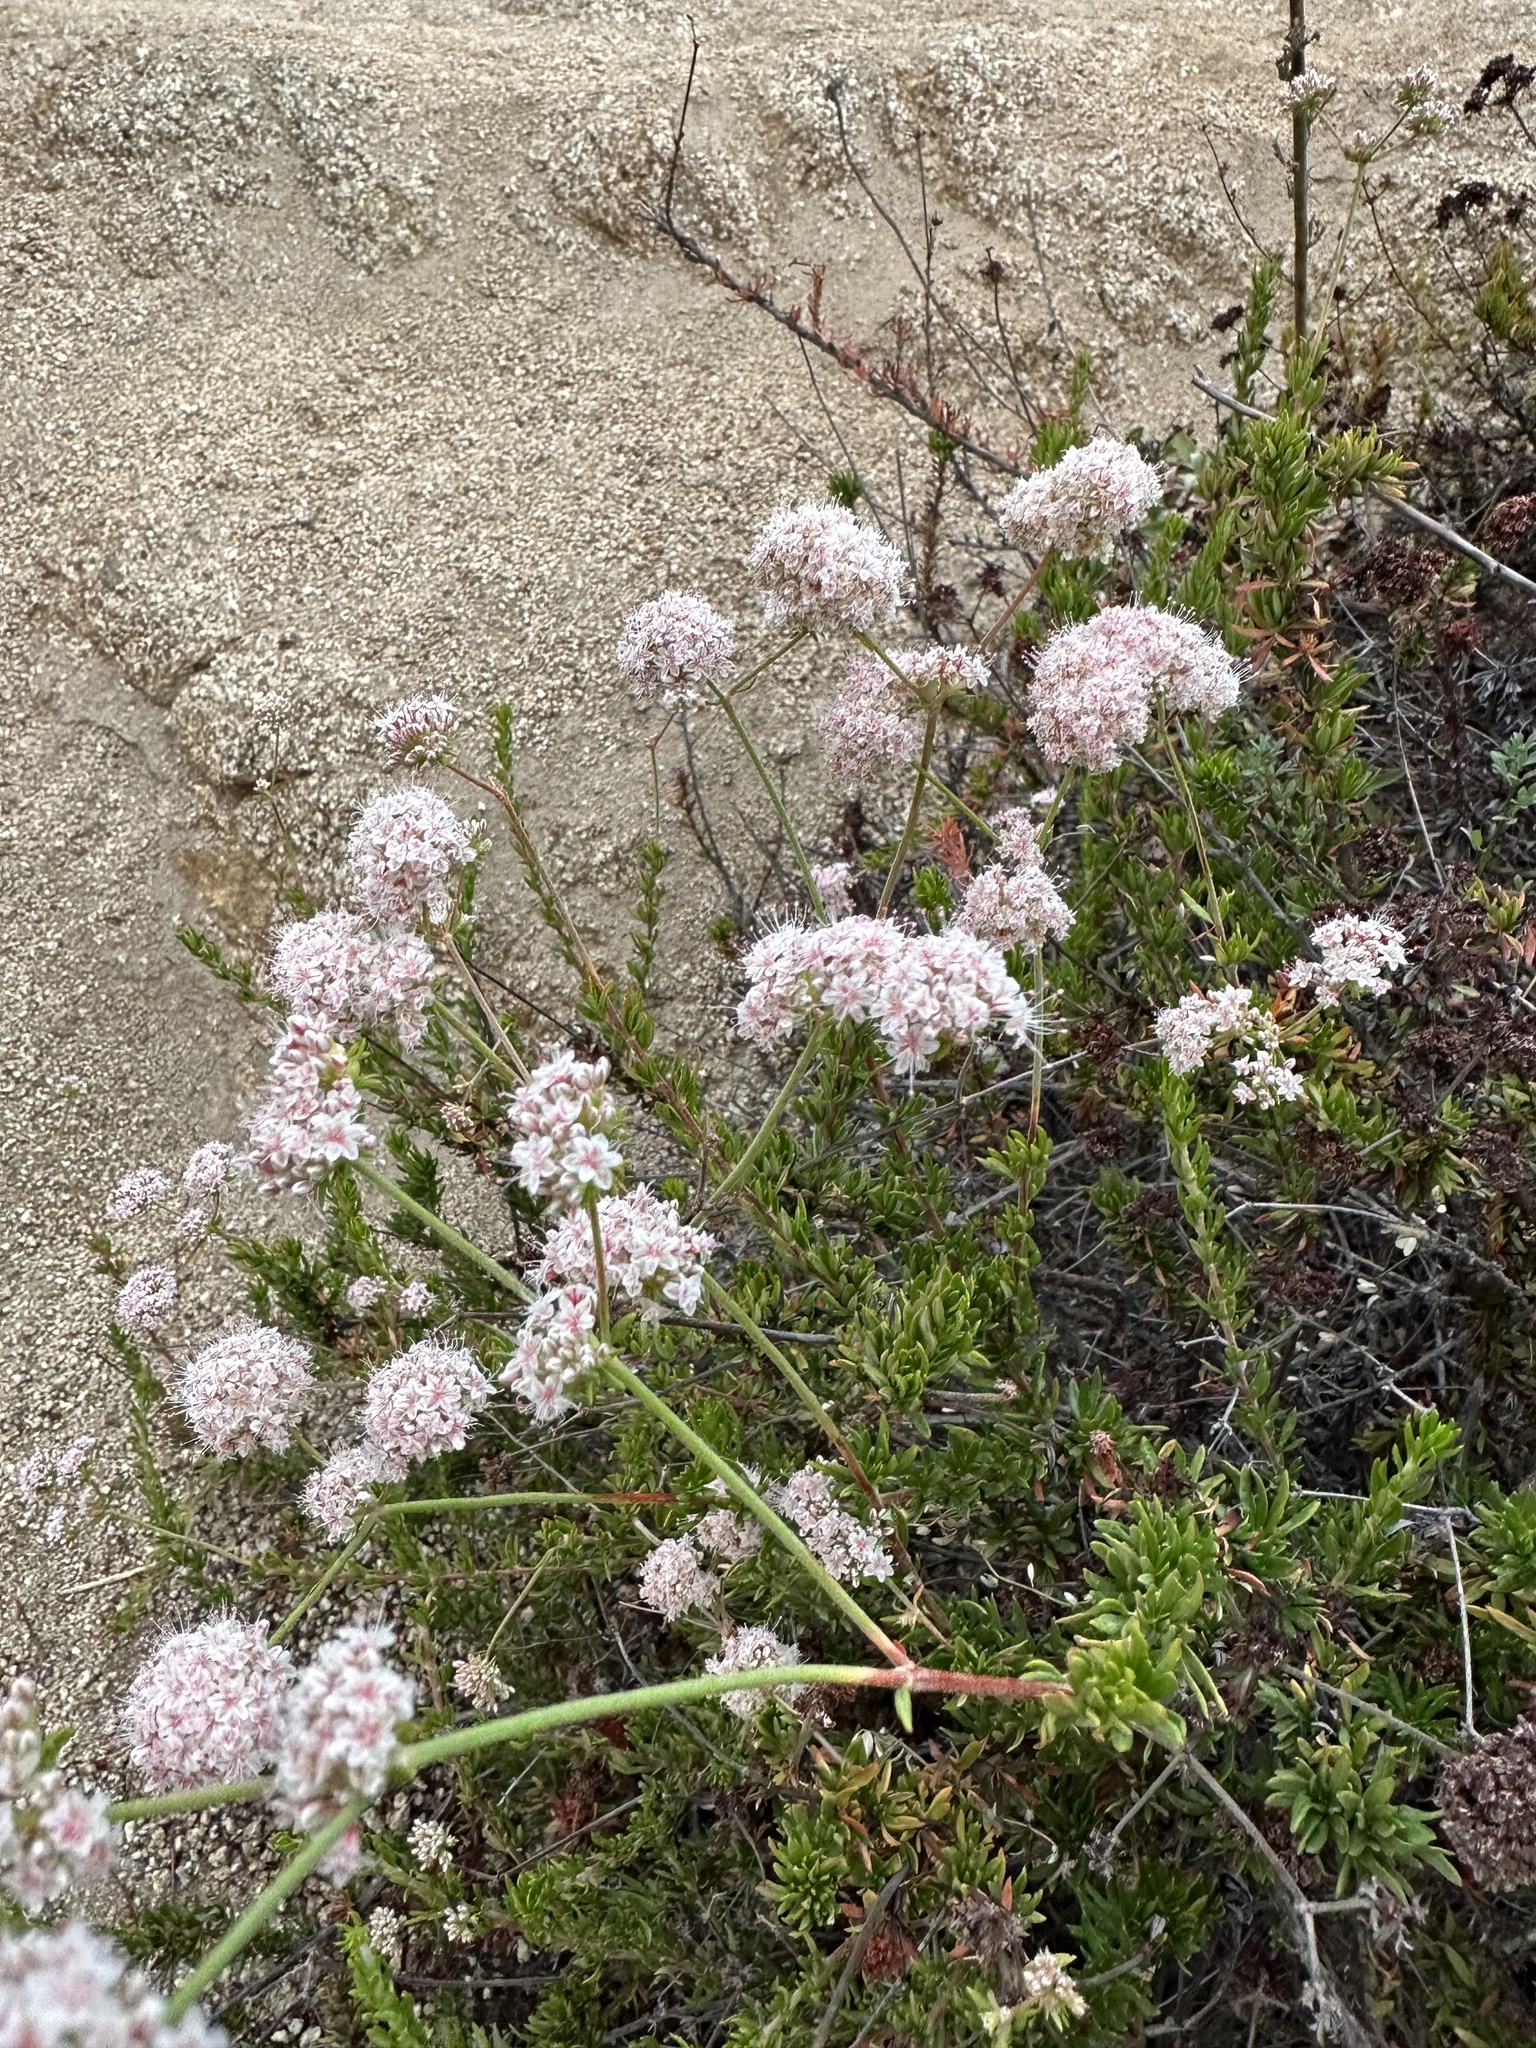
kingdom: Plantae
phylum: Tracheophyta
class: Magnoliopsida
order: Caryophyllales
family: Polygonaceae
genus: Eriogonum
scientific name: Eriogonum fasciculatum
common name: California wild buckwheat
